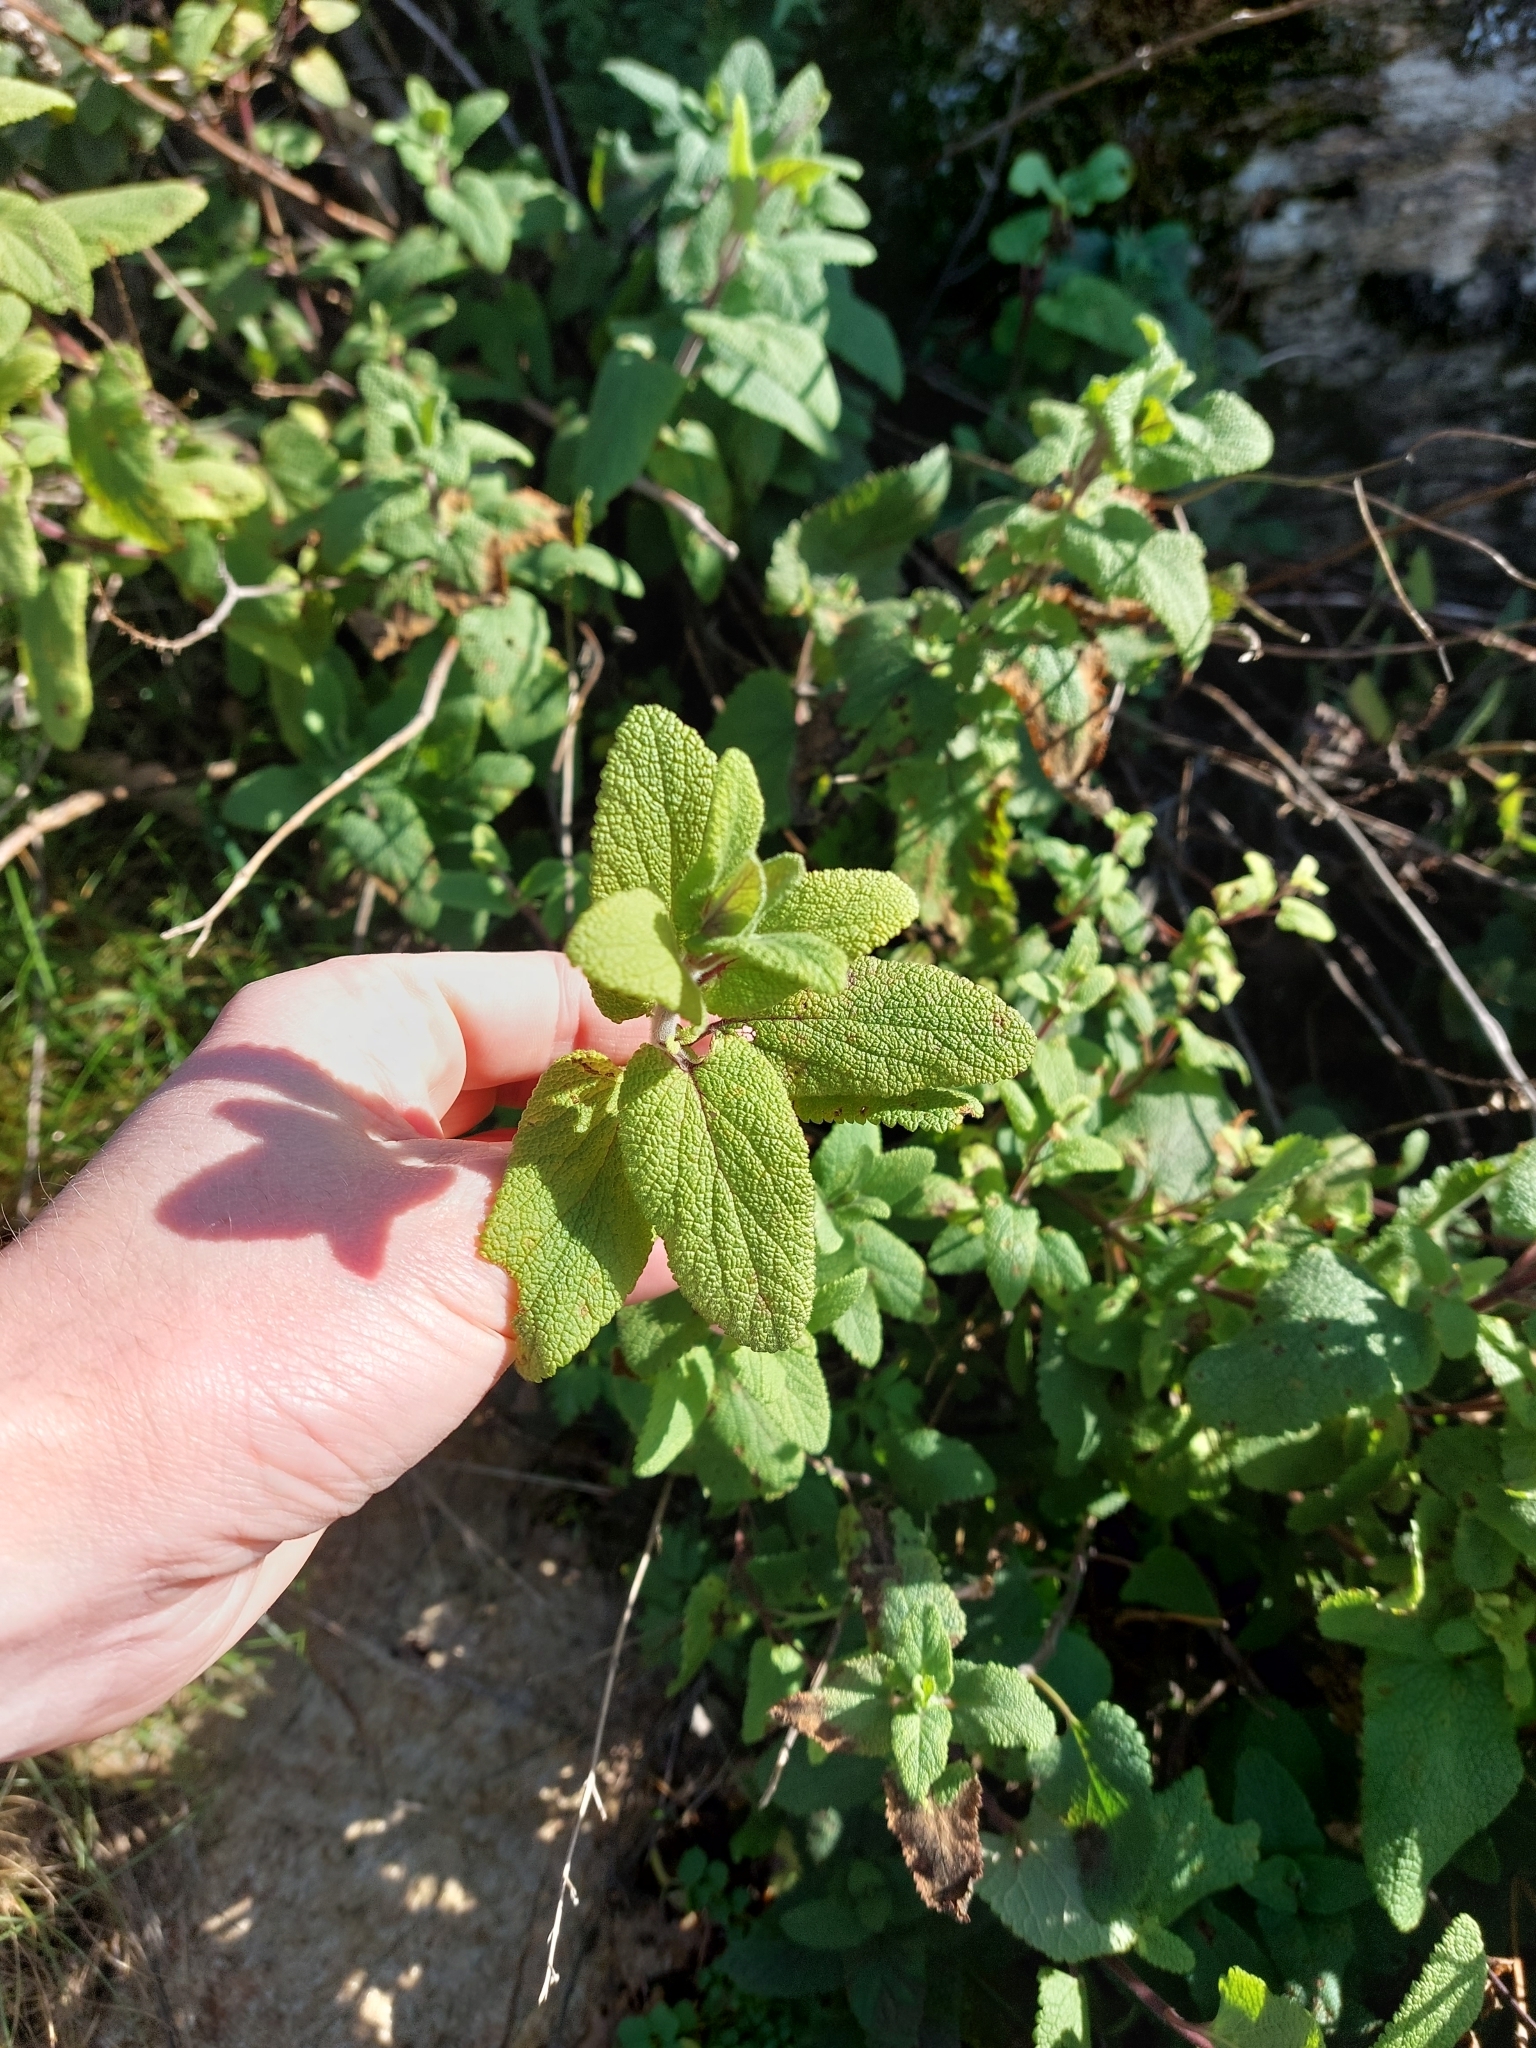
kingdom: Plantae
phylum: Tracheophyta
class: Magnoliopsida
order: Lamiales
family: Lamiaceae
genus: Teucrium
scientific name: Teucrium scorodonia
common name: Woodland germander
